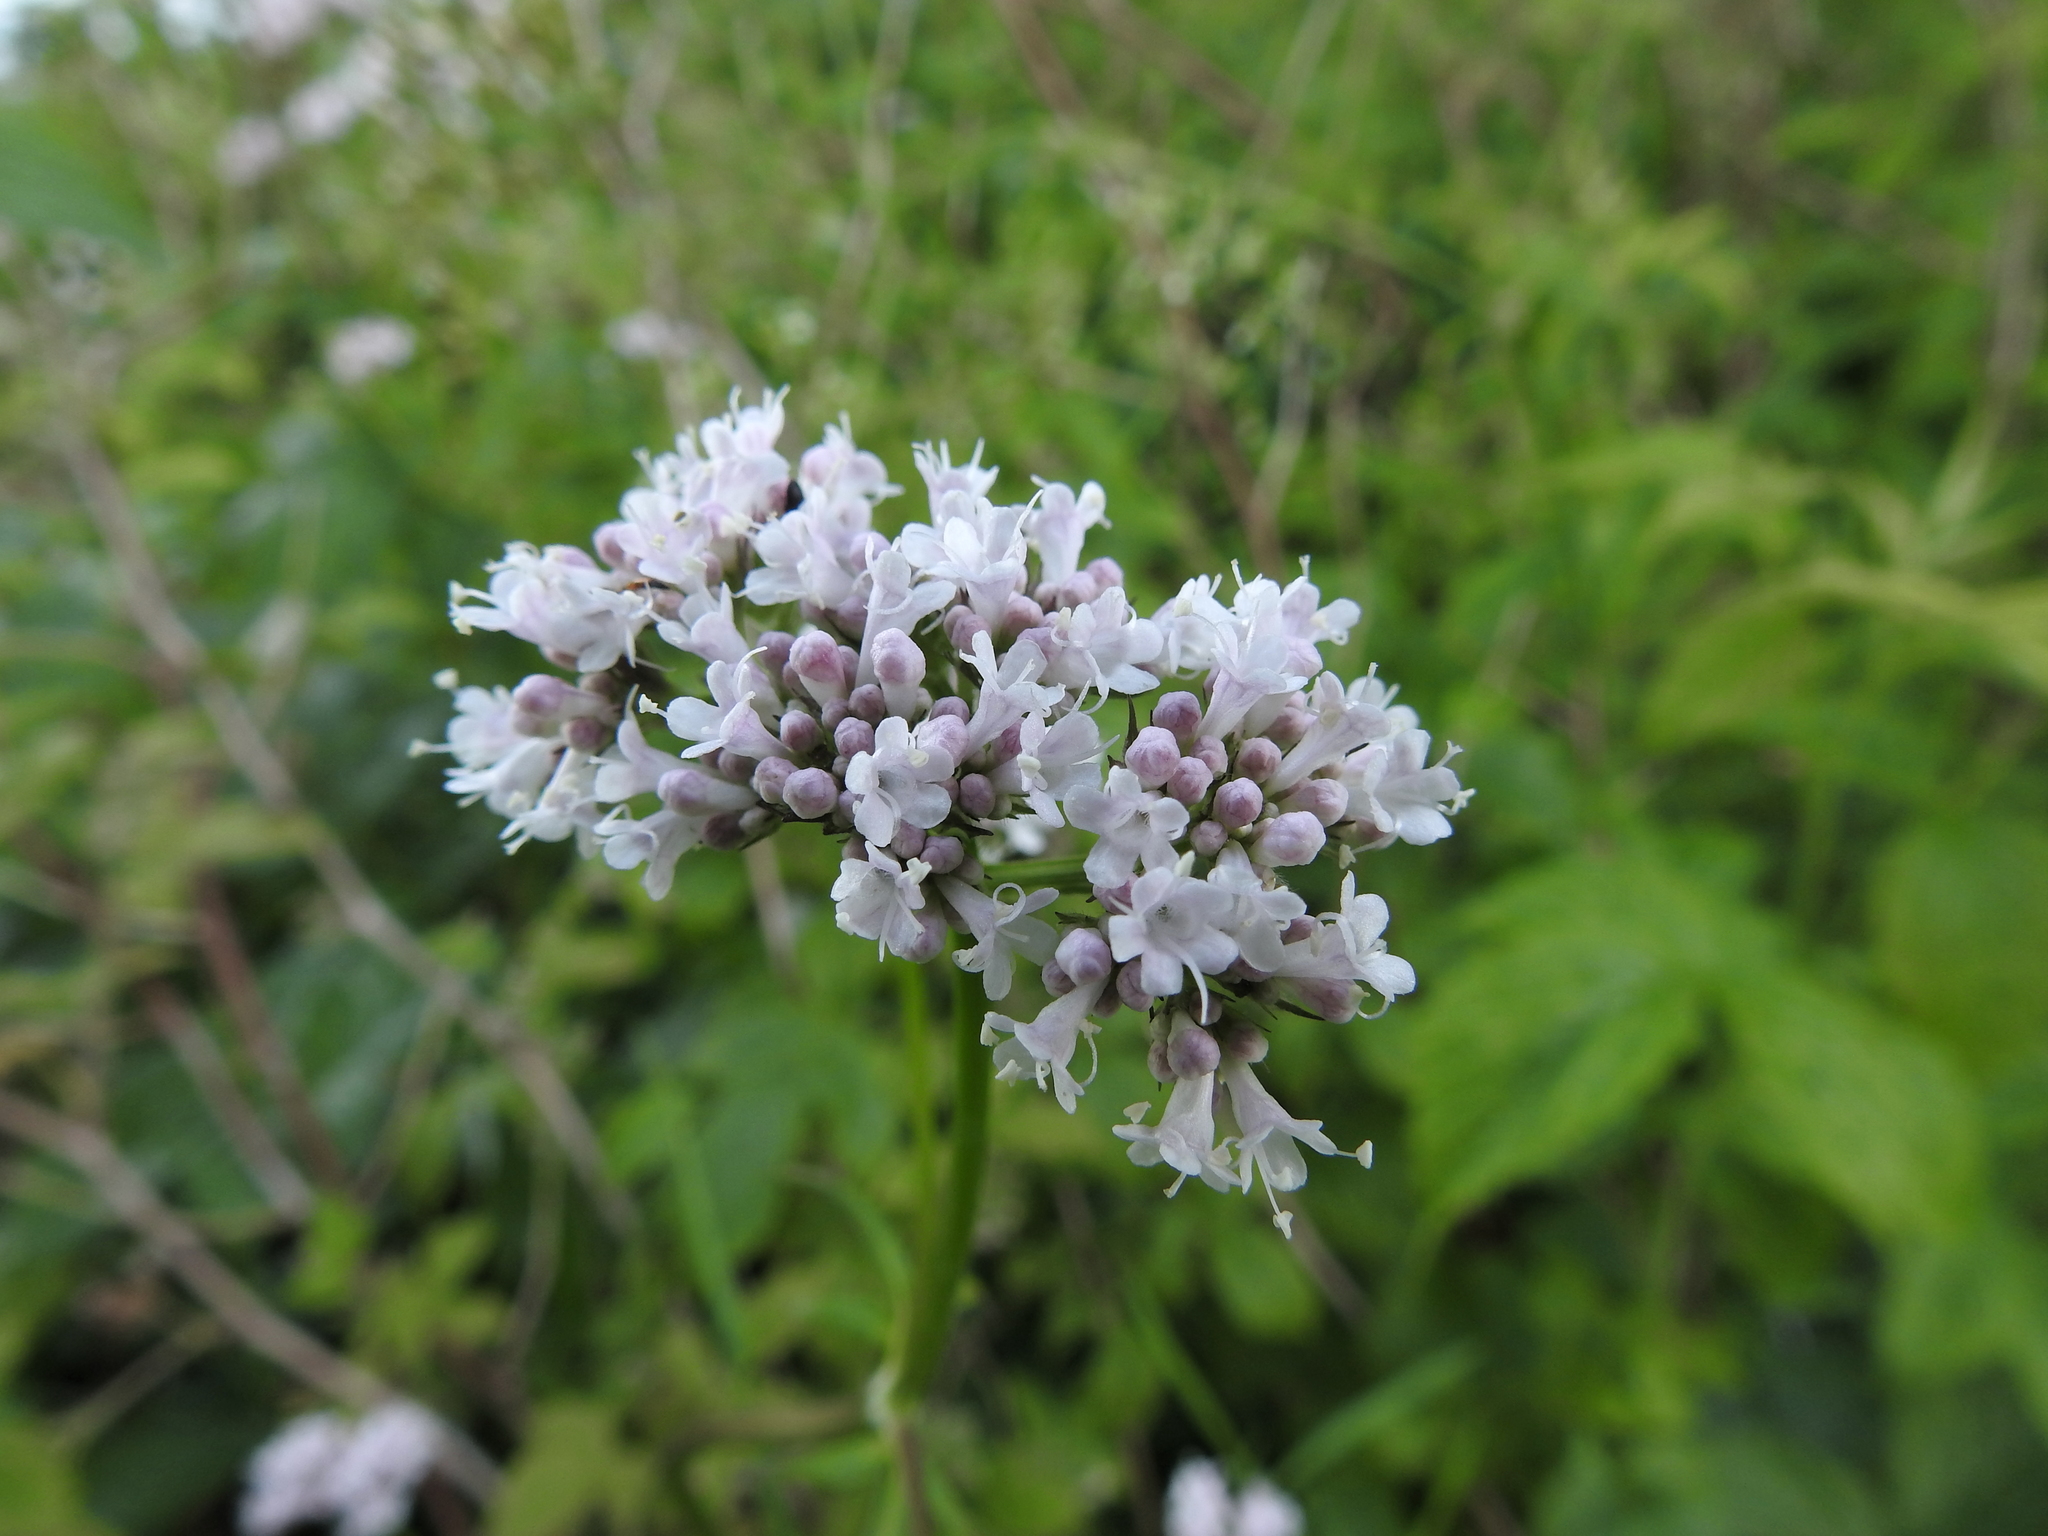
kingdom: Plantae
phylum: Tracheophyta
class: Magnoliopsida
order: Dipsacales
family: Caprifoliaceae
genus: Valeriana
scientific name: Valeriana officinalis
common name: Common valerian
